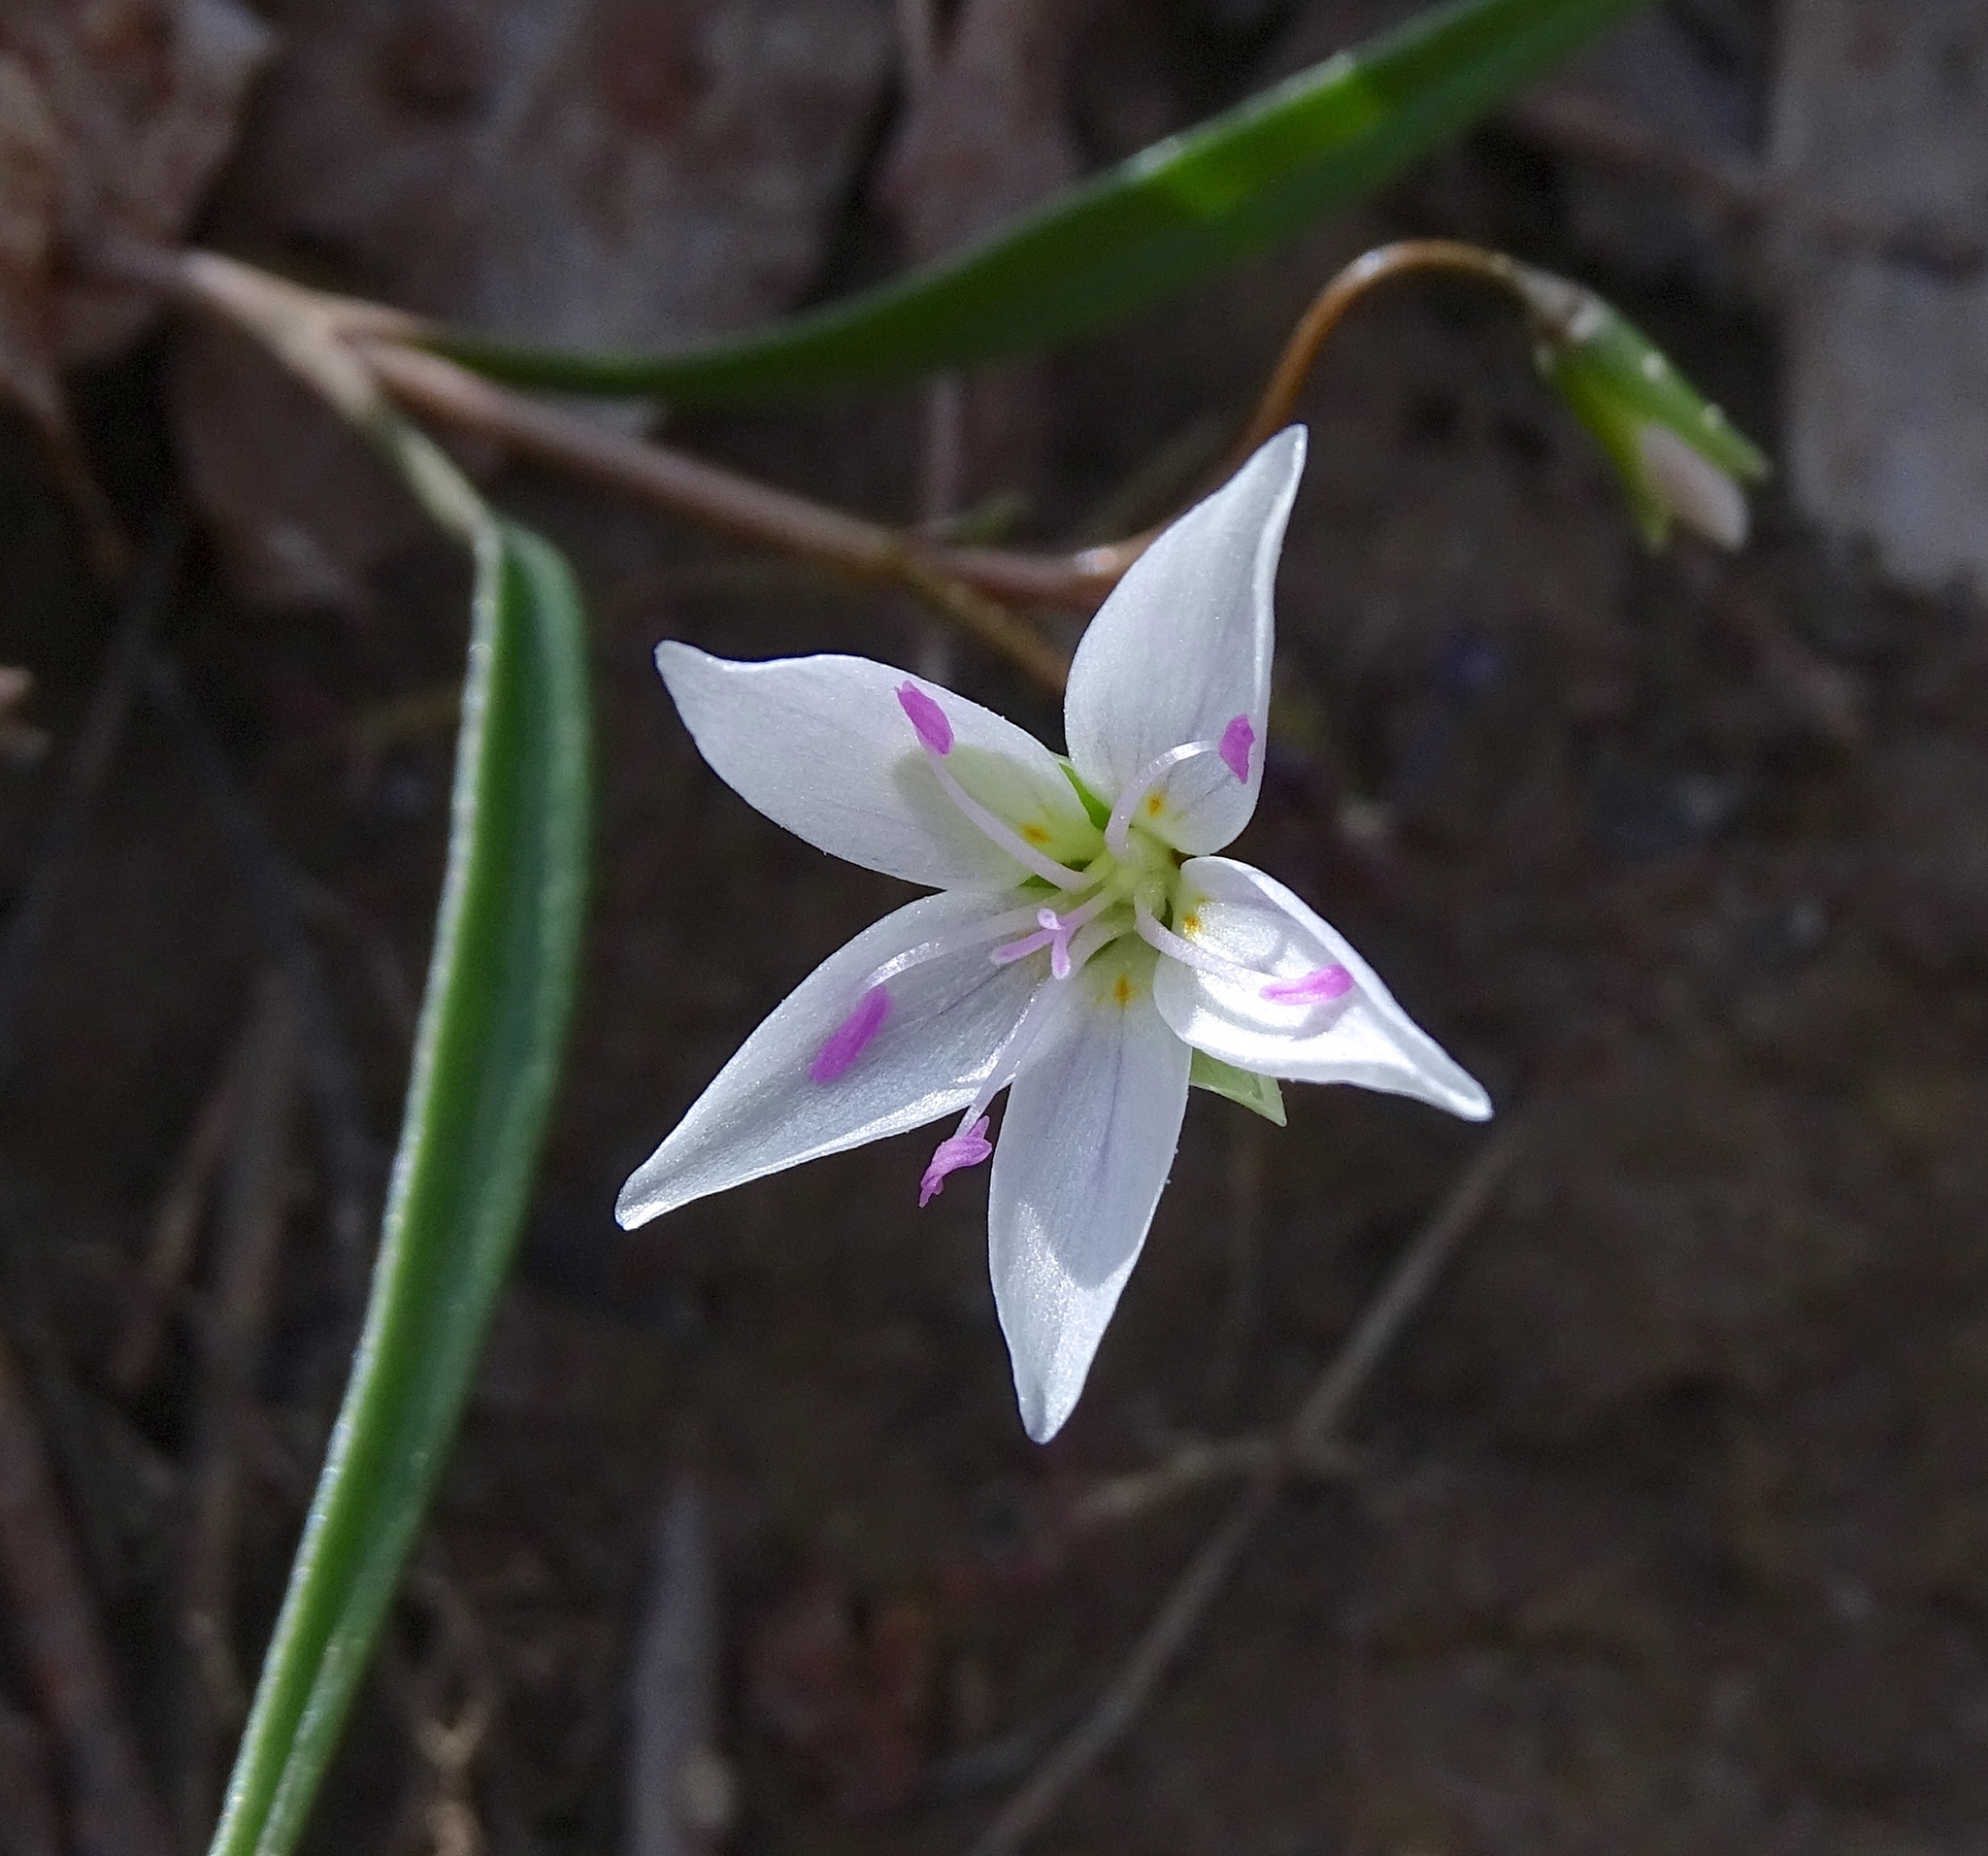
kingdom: Plantae
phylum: Tracheophyta
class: Magnoliopsida
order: Caryophyllales
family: Montiaceae
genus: Claytonia
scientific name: Claytonia virginica
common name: Virginia springbeauty
